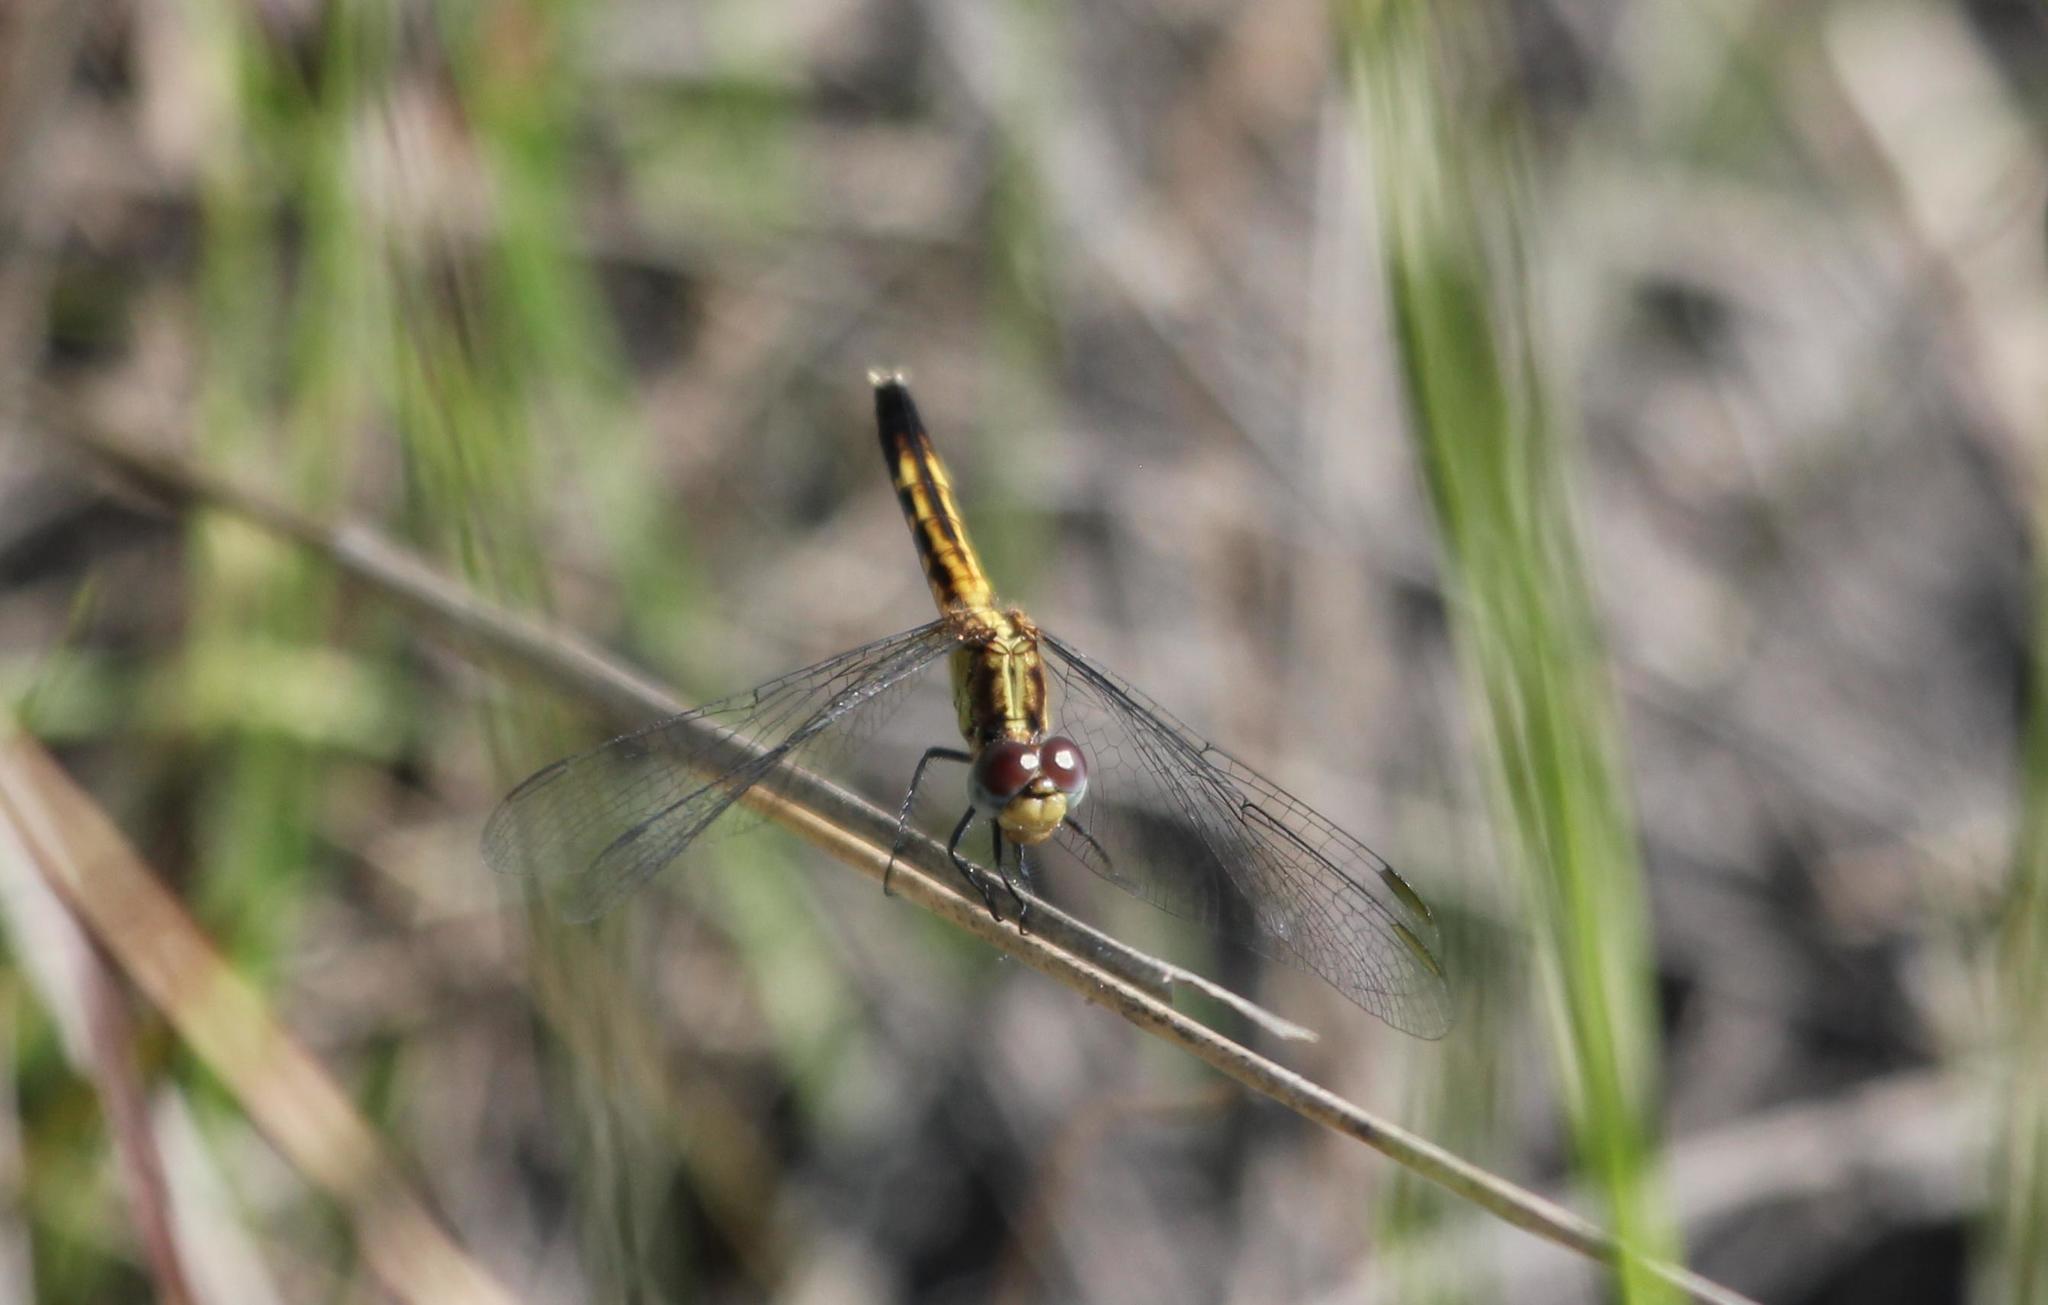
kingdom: Animalia
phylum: Arthropoda
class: Insecta
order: Odonata
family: Libellulidae
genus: Erythrodiplax
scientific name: Erythrodiplax minuscula
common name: Little blue dragonlet
